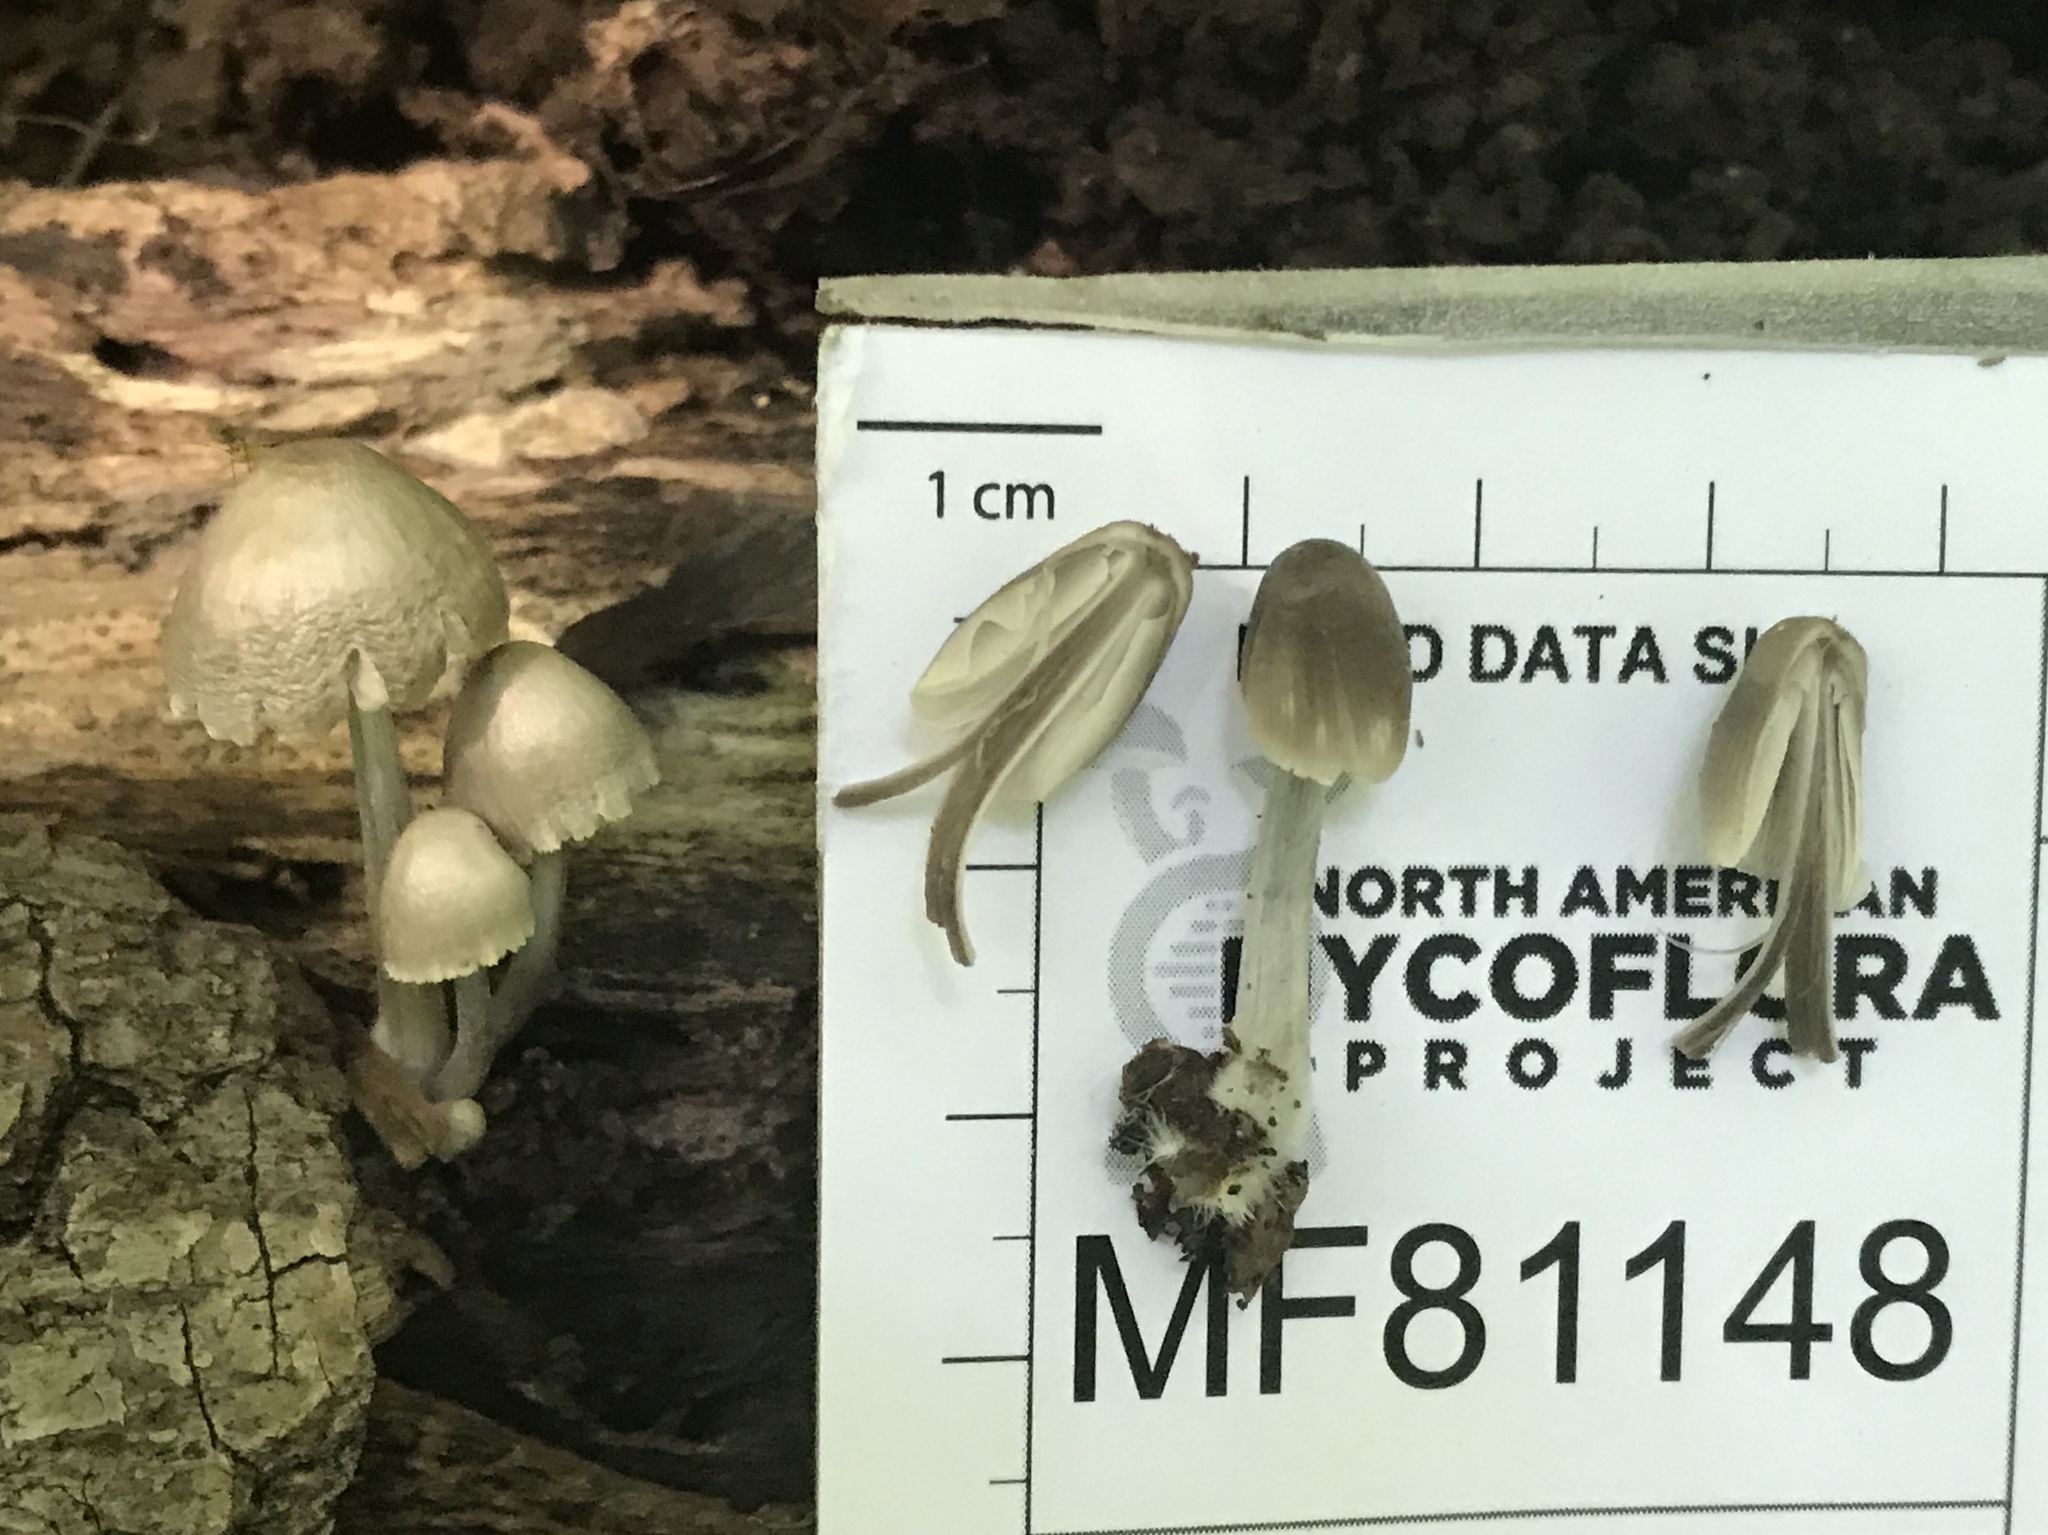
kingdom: Fungi
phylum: Basidiomycota
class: Agaricomycetes
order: Agaricales
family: Mycenaceae
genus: Mycena
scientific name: Mycena niveipes
